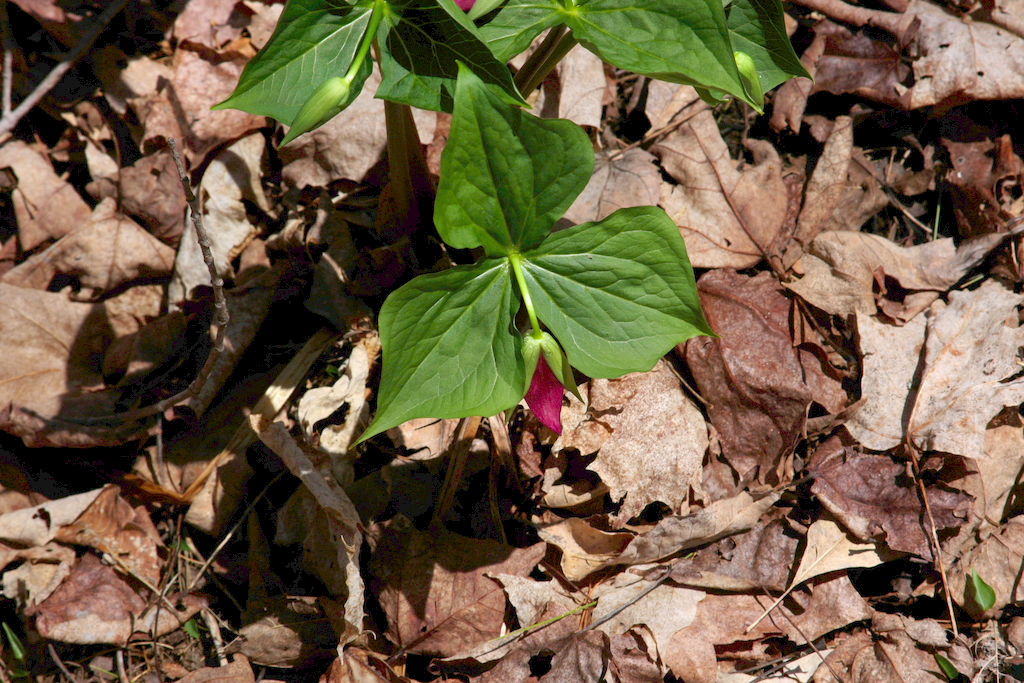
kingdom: Plantae
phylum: Tracheophyta
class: Liliopsida
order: Liliales
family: Melanthiaceae
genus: Trillium
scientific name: Trillium erectum
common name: Purple trillium
